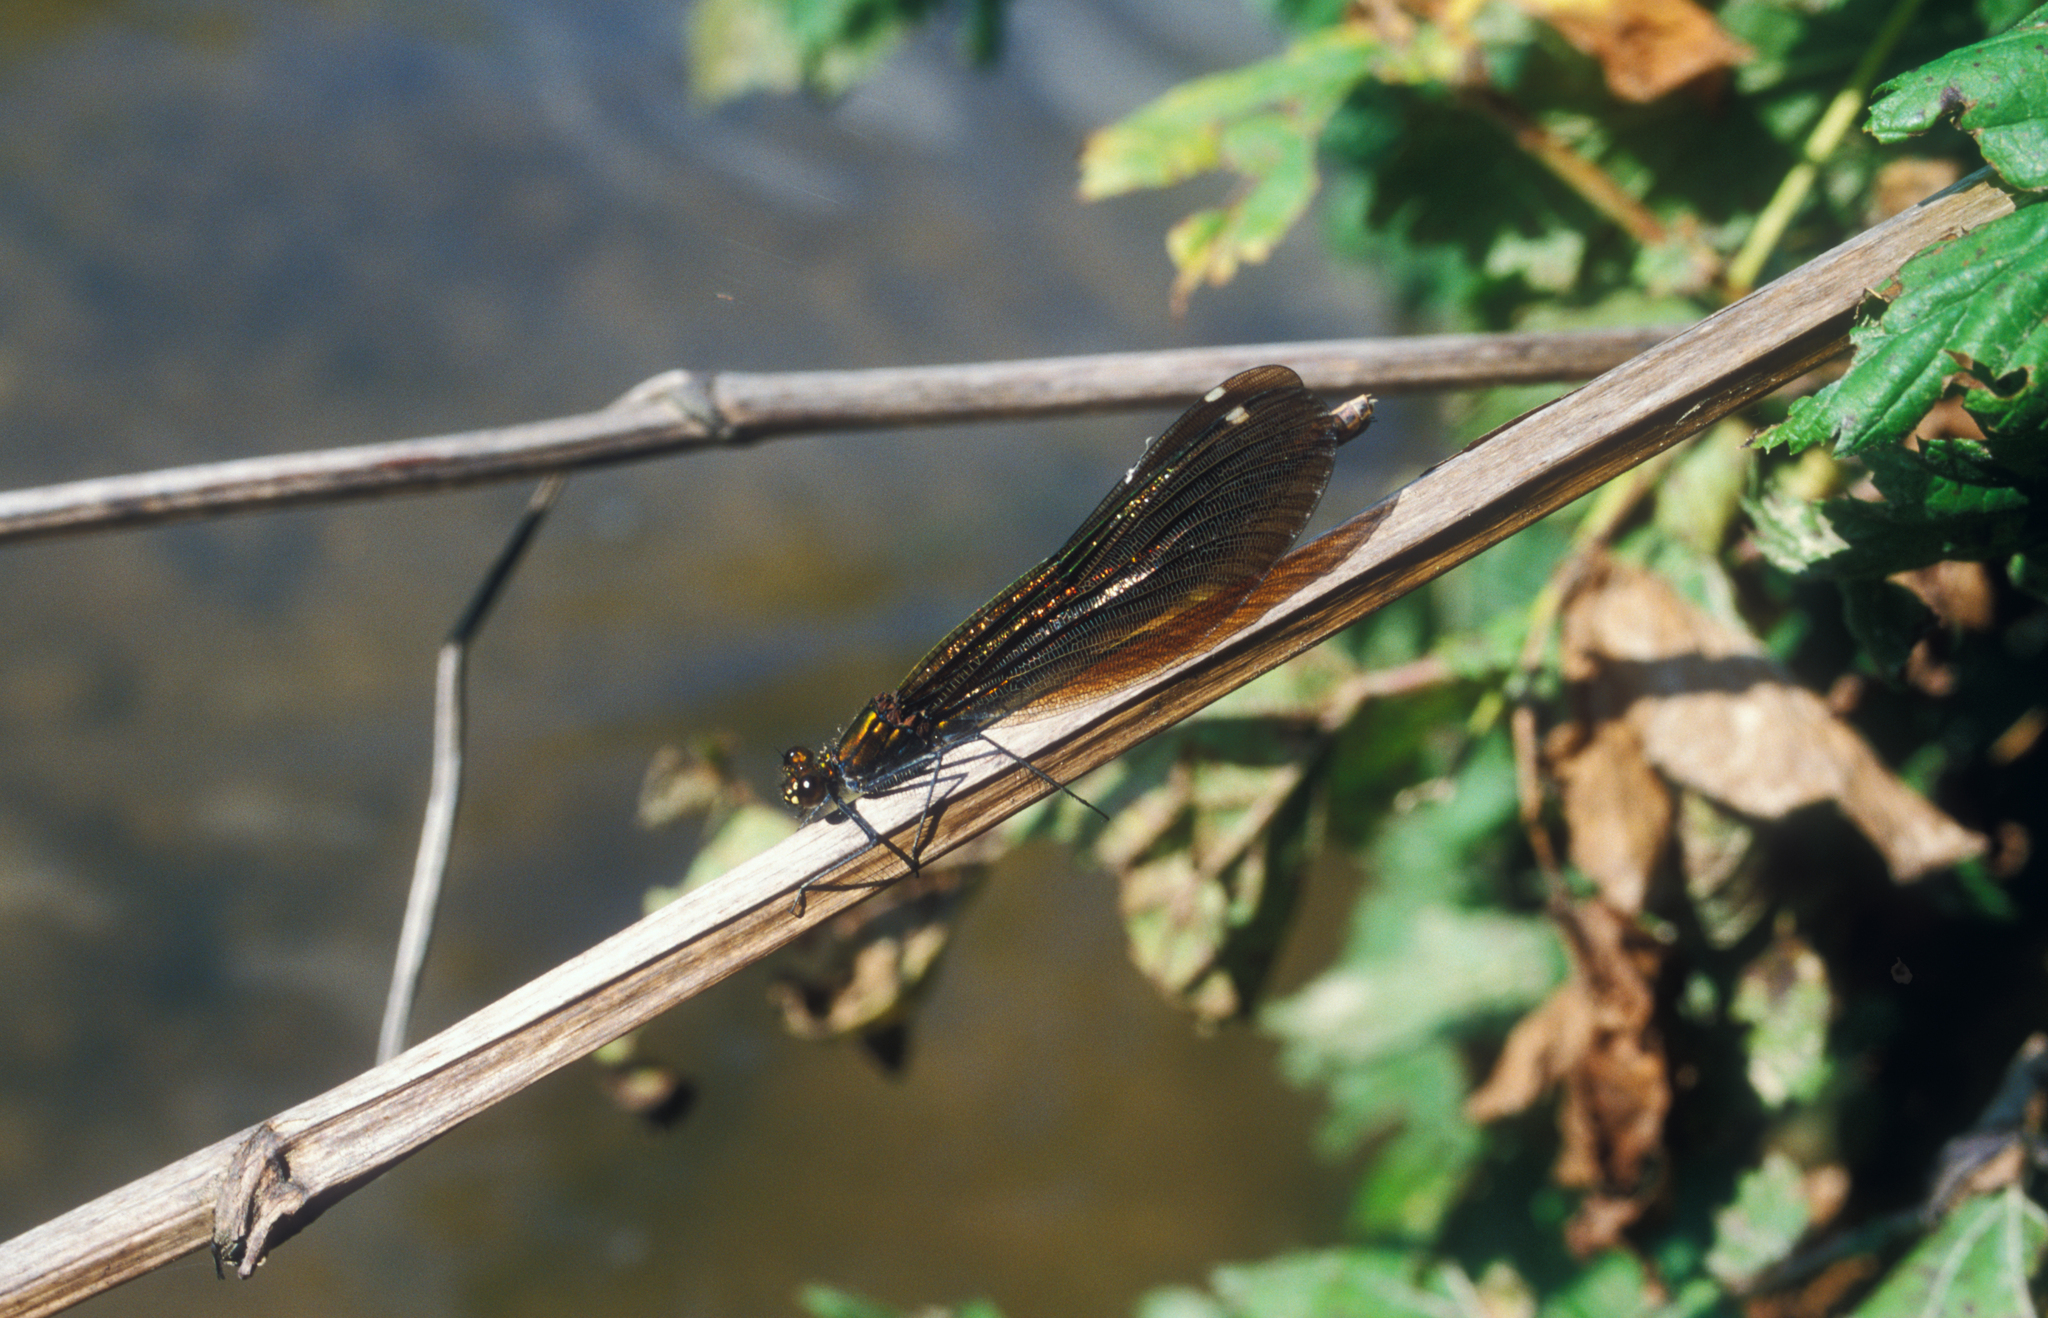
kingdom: Animalia
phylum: Arthropoda
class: Insecta
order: Odonata
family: Calopterygidae
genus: Calopteryx
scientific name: Calopteryx virgo
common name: Beautiful demoiselle
